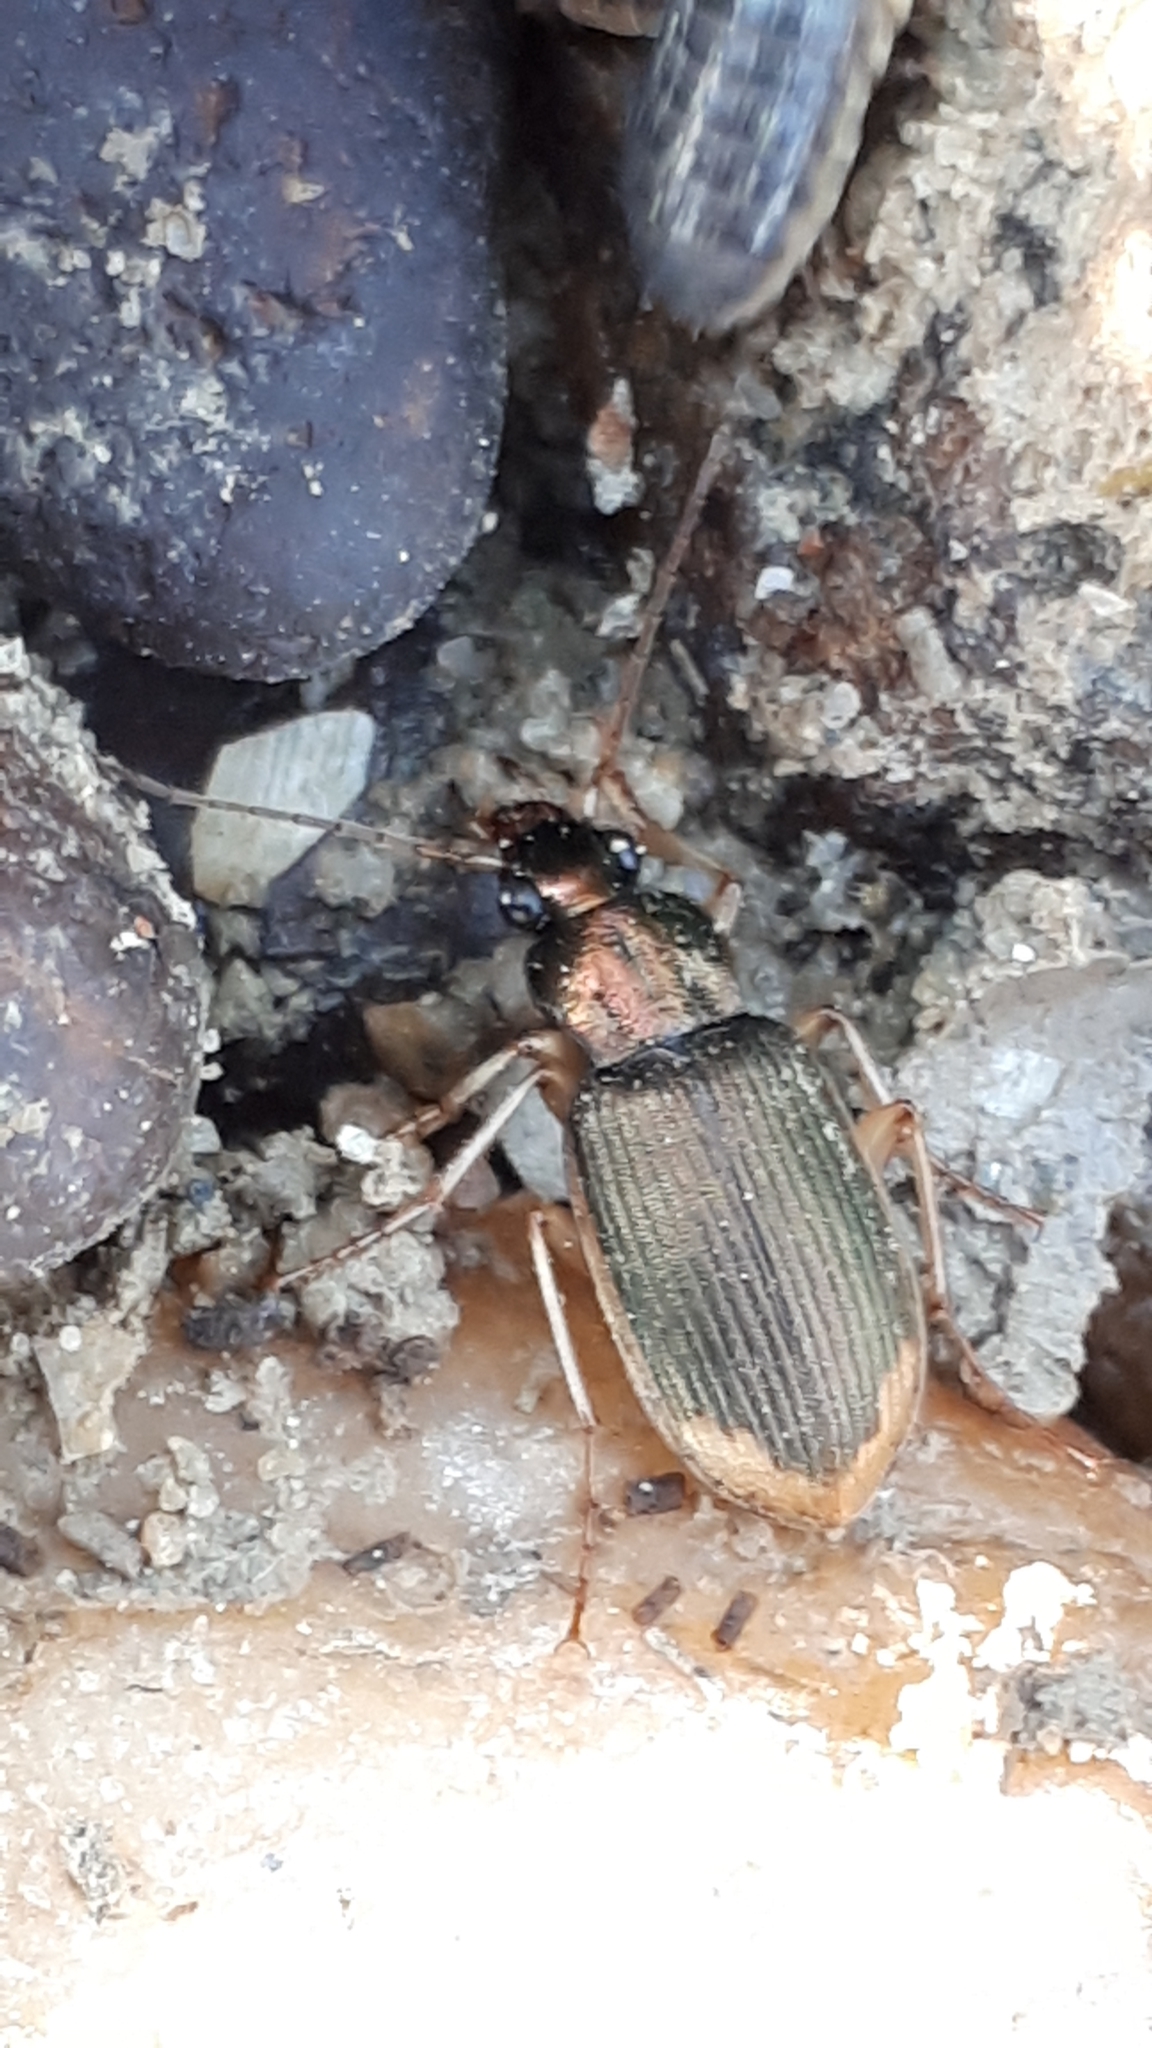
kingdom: Animalia
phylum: Arthropoda
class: Insecta
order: Coleoptera
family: Carabidae
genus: Chlaenius
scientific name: Chlaenius vestitus
